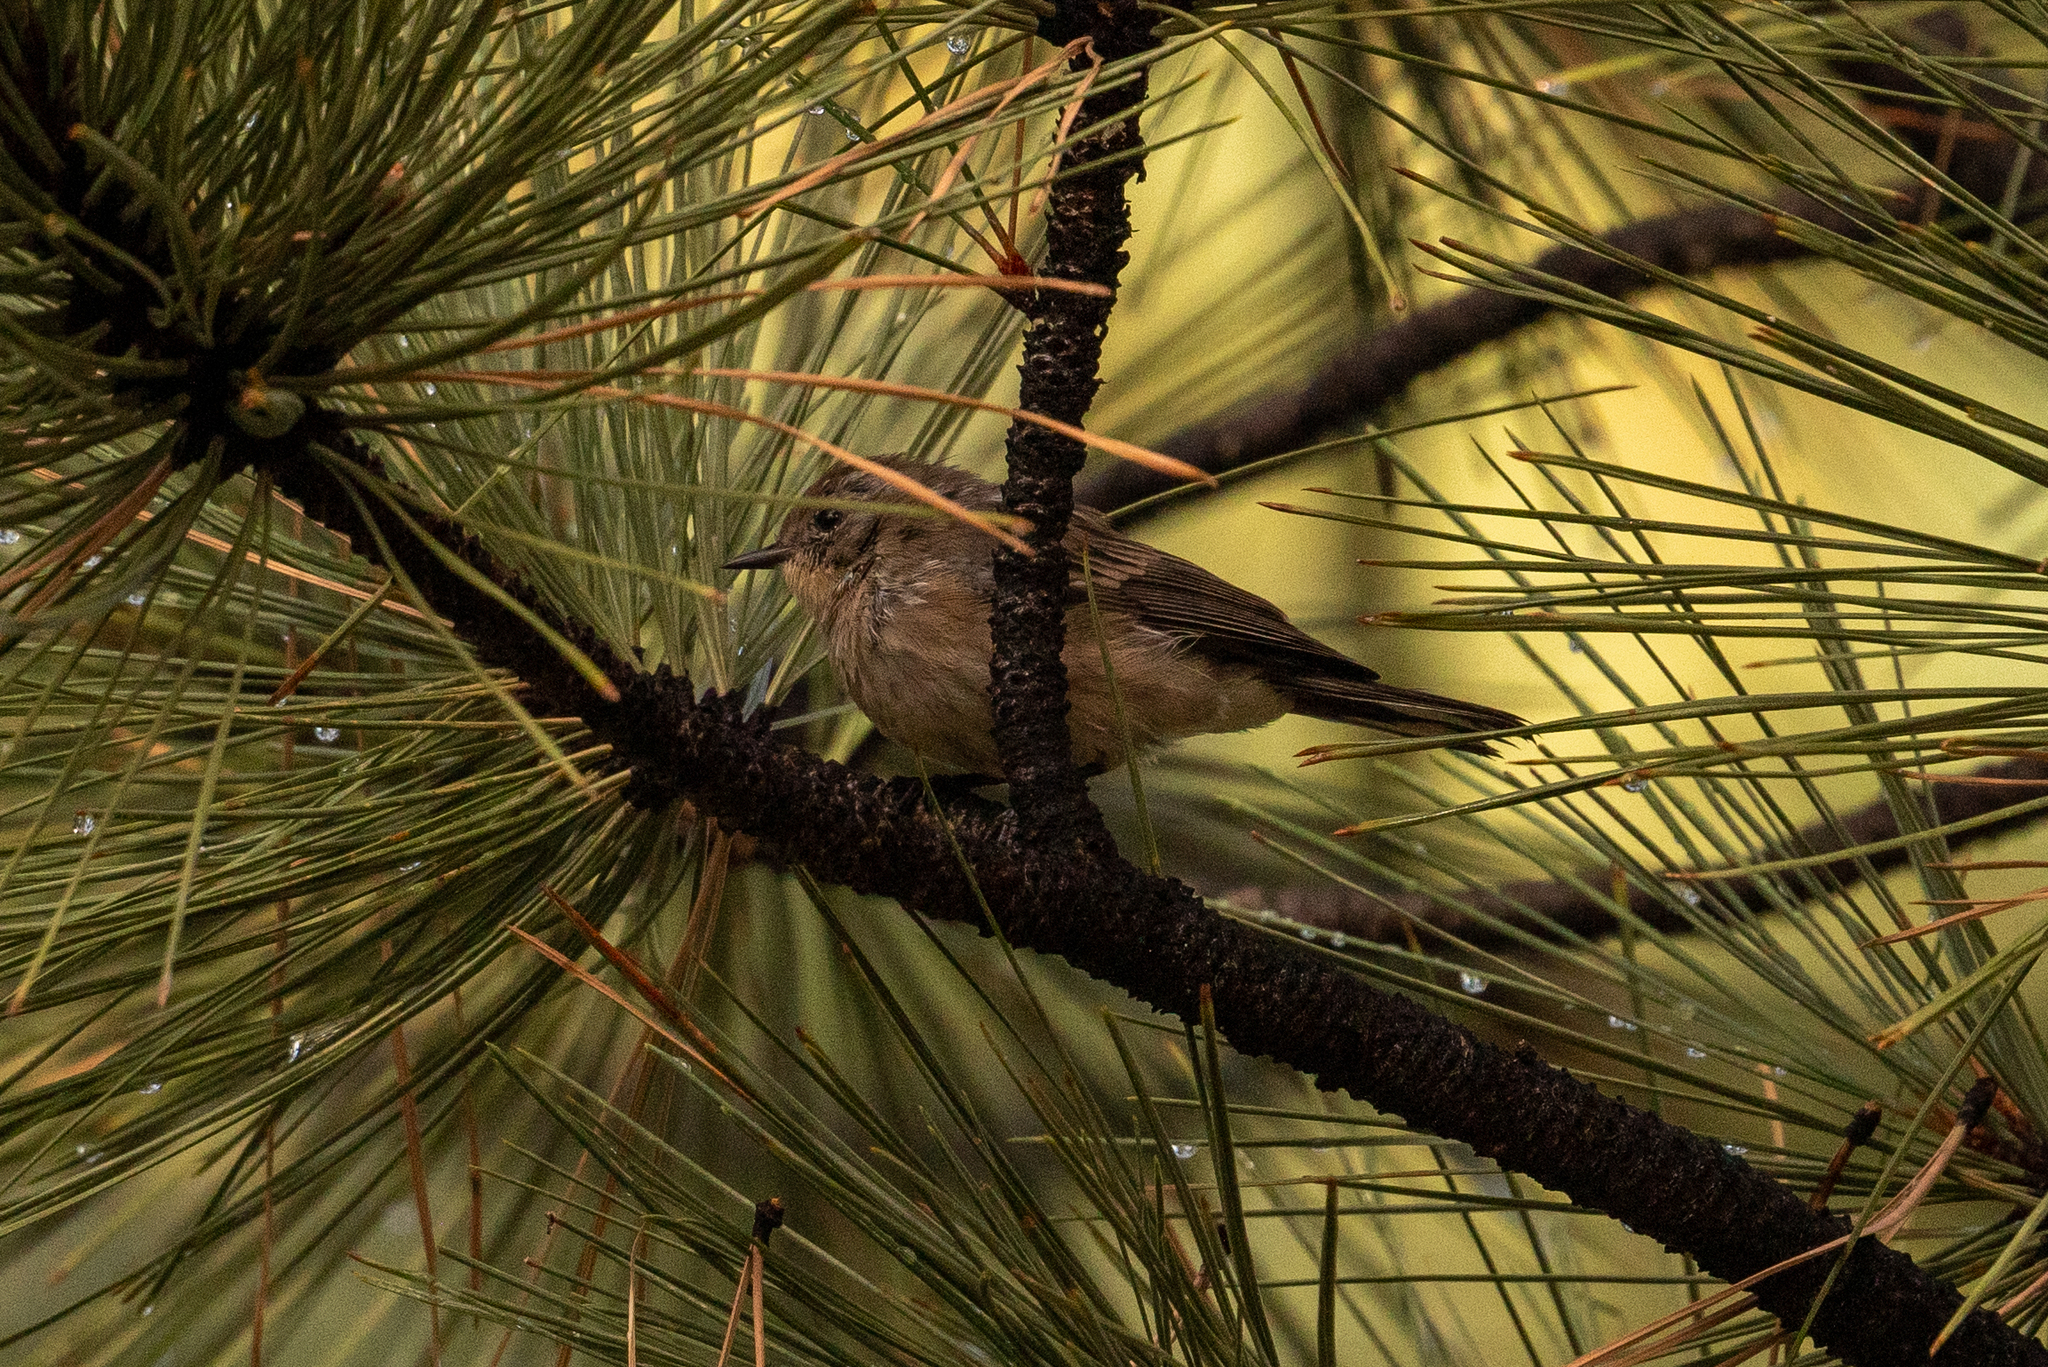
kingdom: Animalia
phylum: Chordata
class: Aves
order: Passeriformes
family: Parulidae
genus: Setophaga
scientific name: Setophaga coronata
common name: Myrtle warbler
